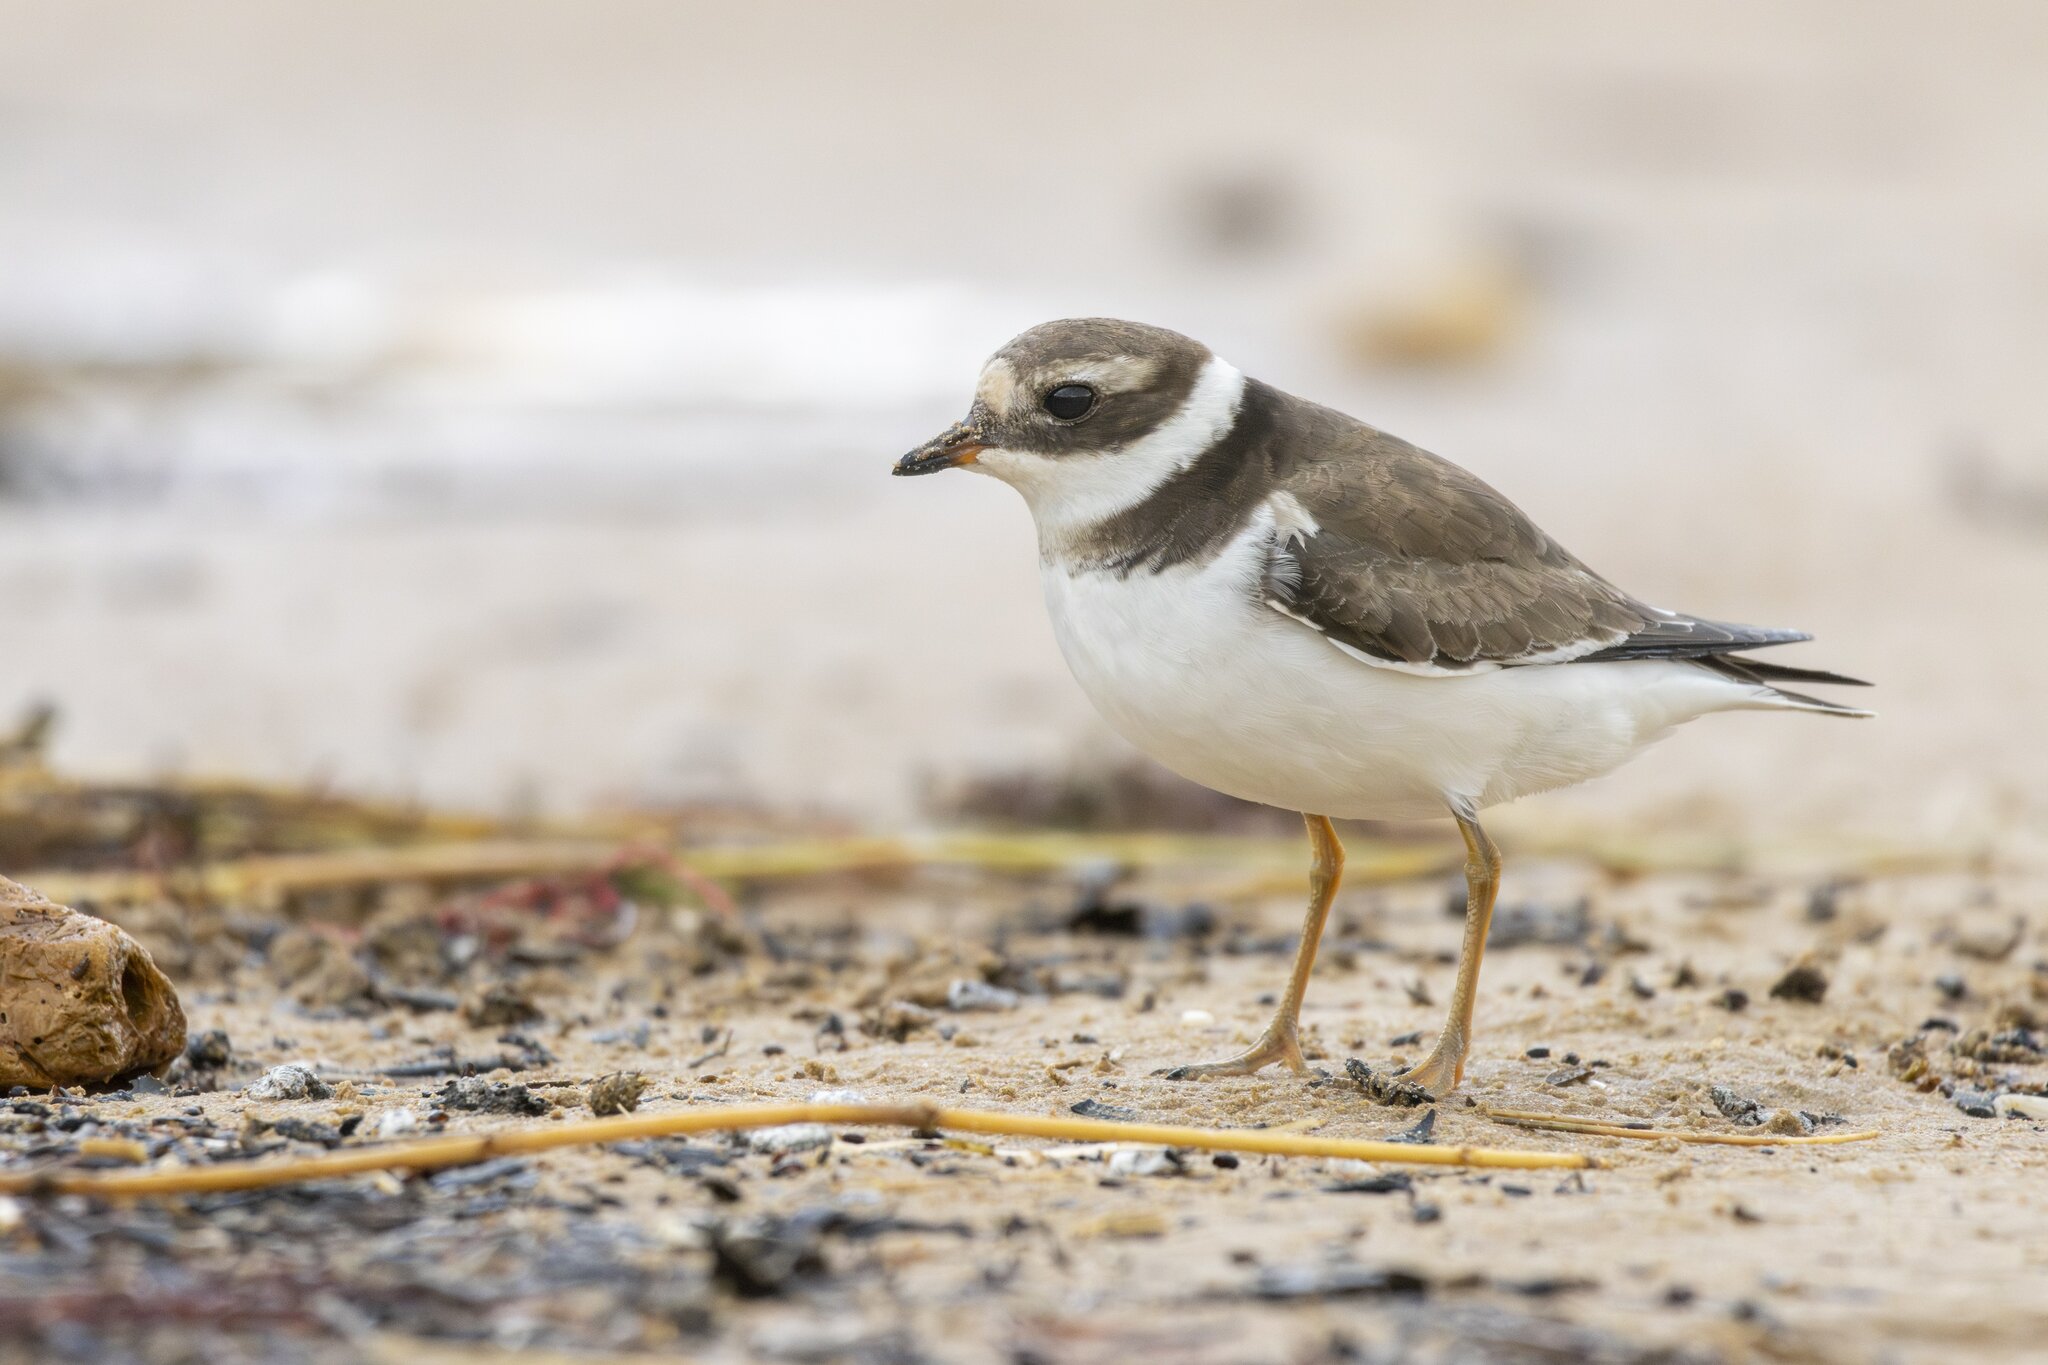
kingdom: Animalia
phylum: Chordata
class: Aves
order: Charadriiformes
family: Charadriidae
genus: Charadrius
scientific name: Charadrius hiaticula
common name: Common ringed plover
